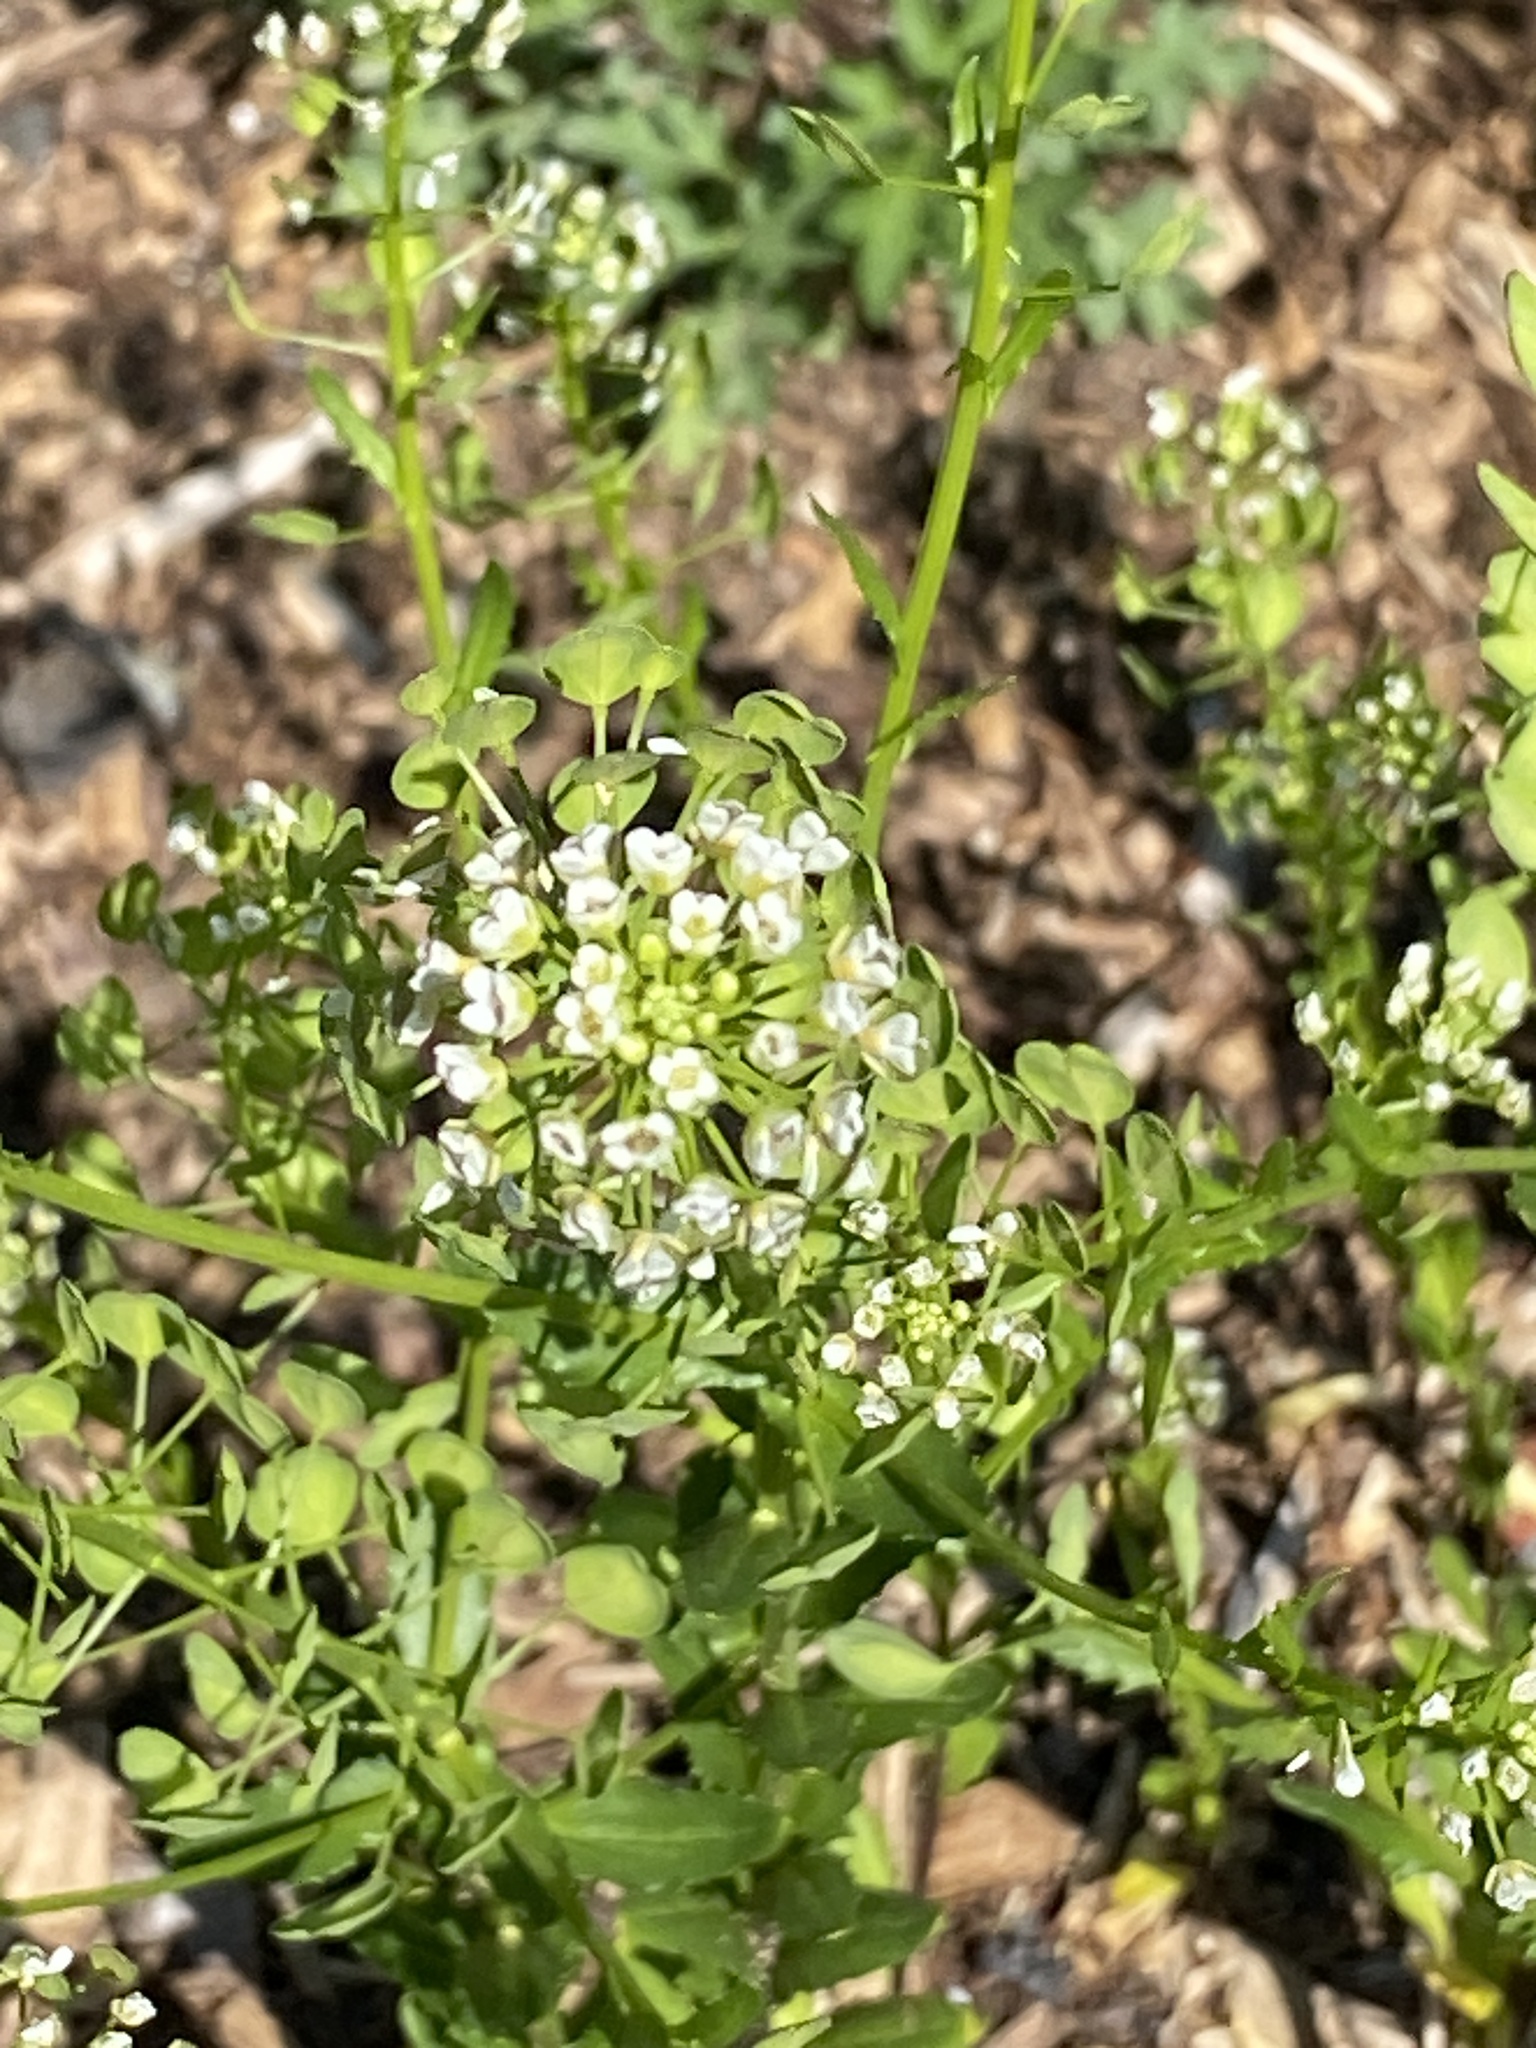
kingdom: Plantae
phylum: Tracheophyta
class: Magnoliopsida
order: Brassicales
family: Brassicaceae
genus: Thlaspi
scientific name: Thlaspi arvense
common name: Field pennycress
